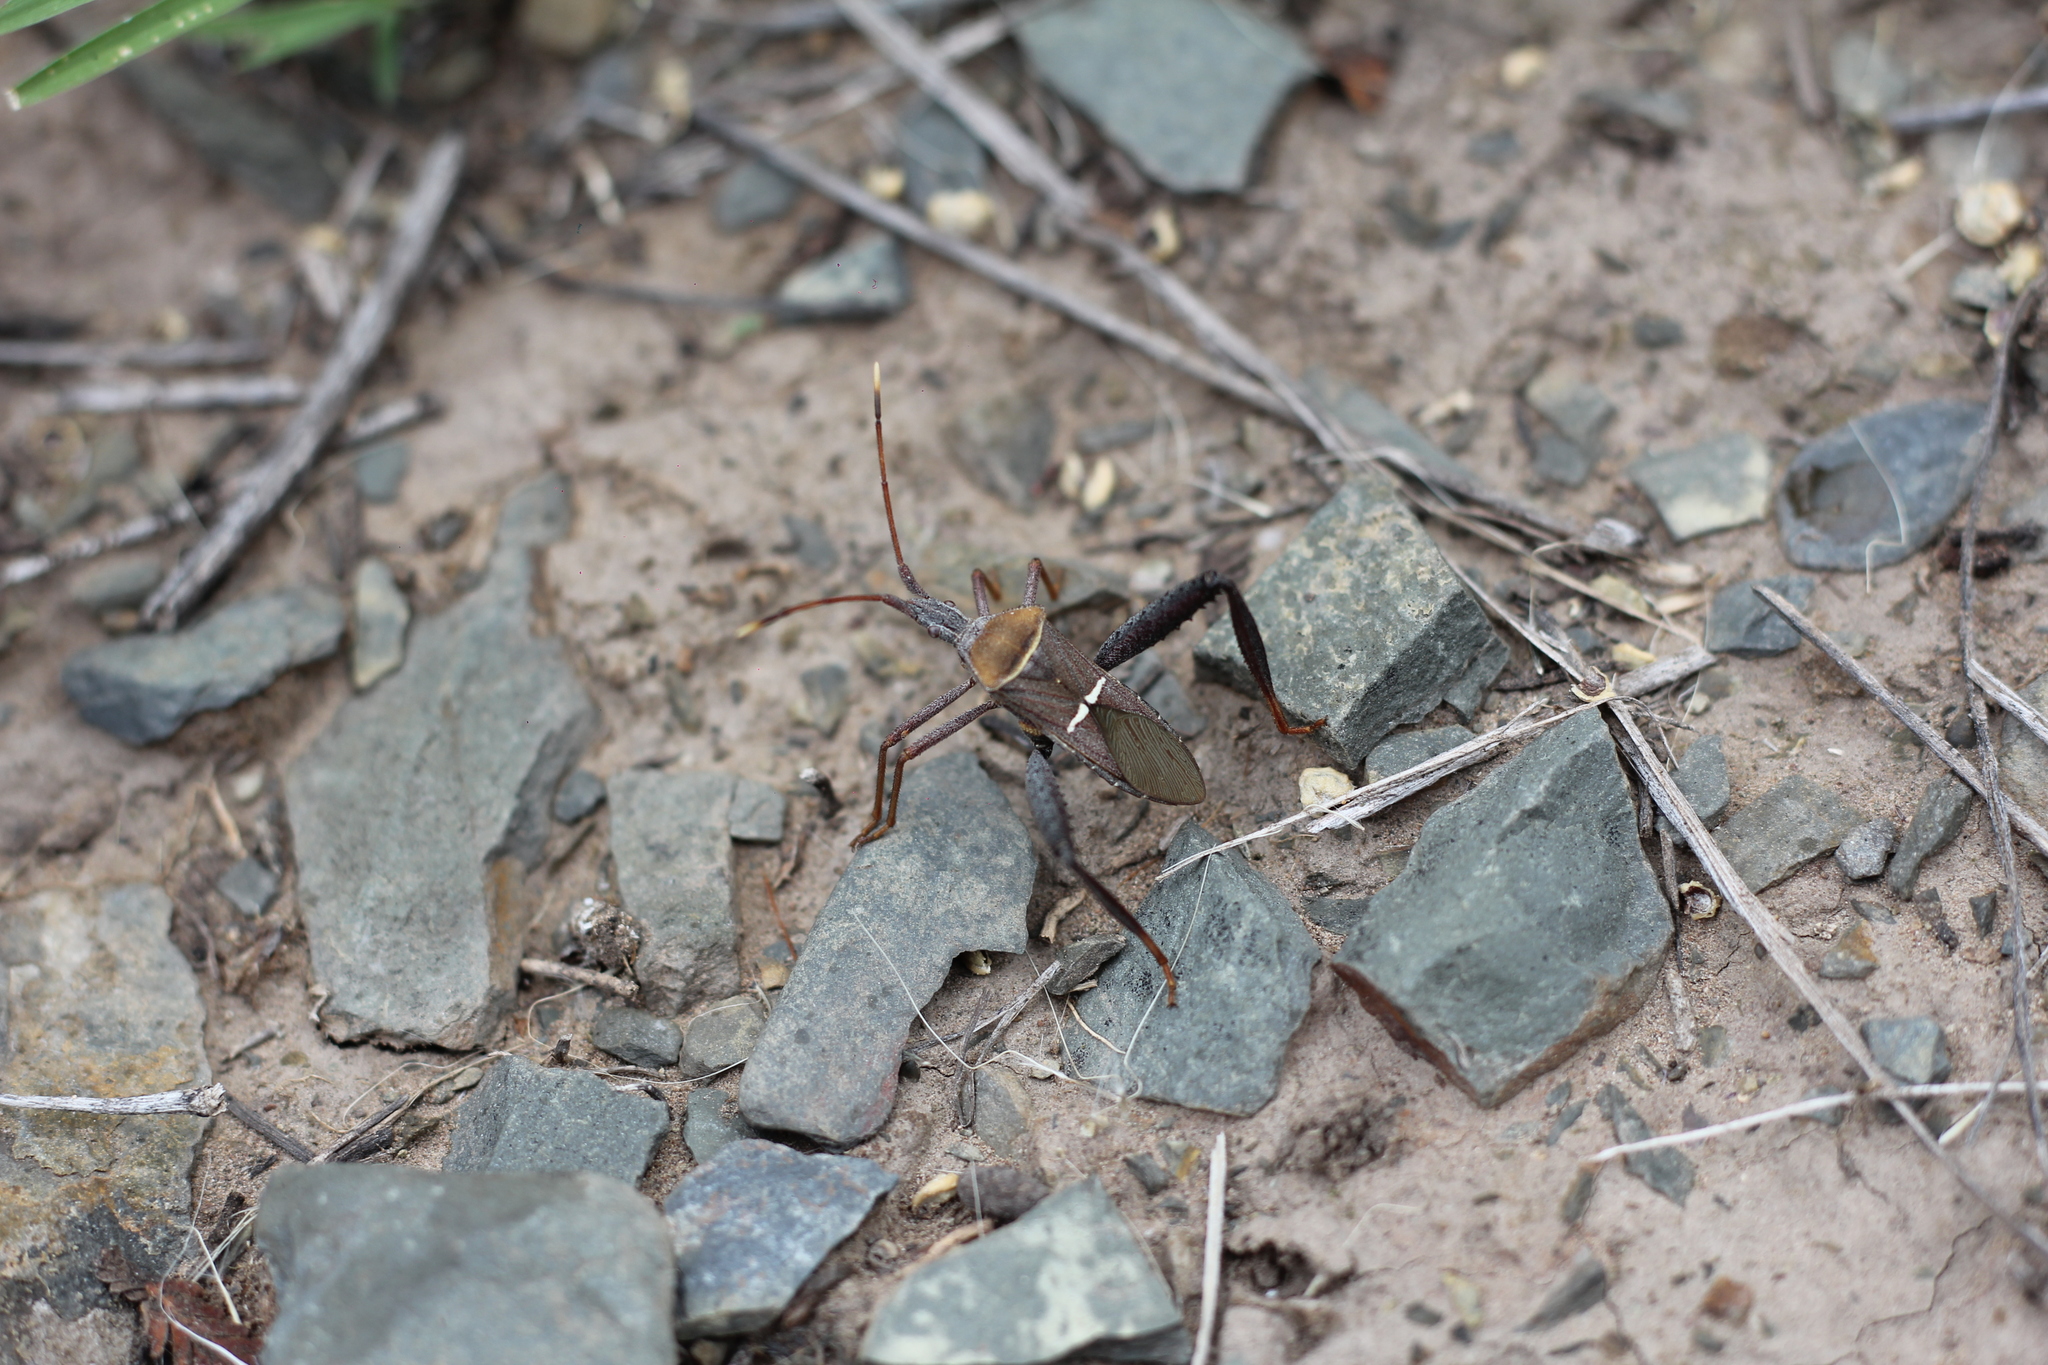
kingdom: Animalia
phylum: Arthropoda
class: Insecta
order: Hemiptera
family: Coreidae
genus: Leptoglossus
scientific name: Leptoglossus crassicornis
